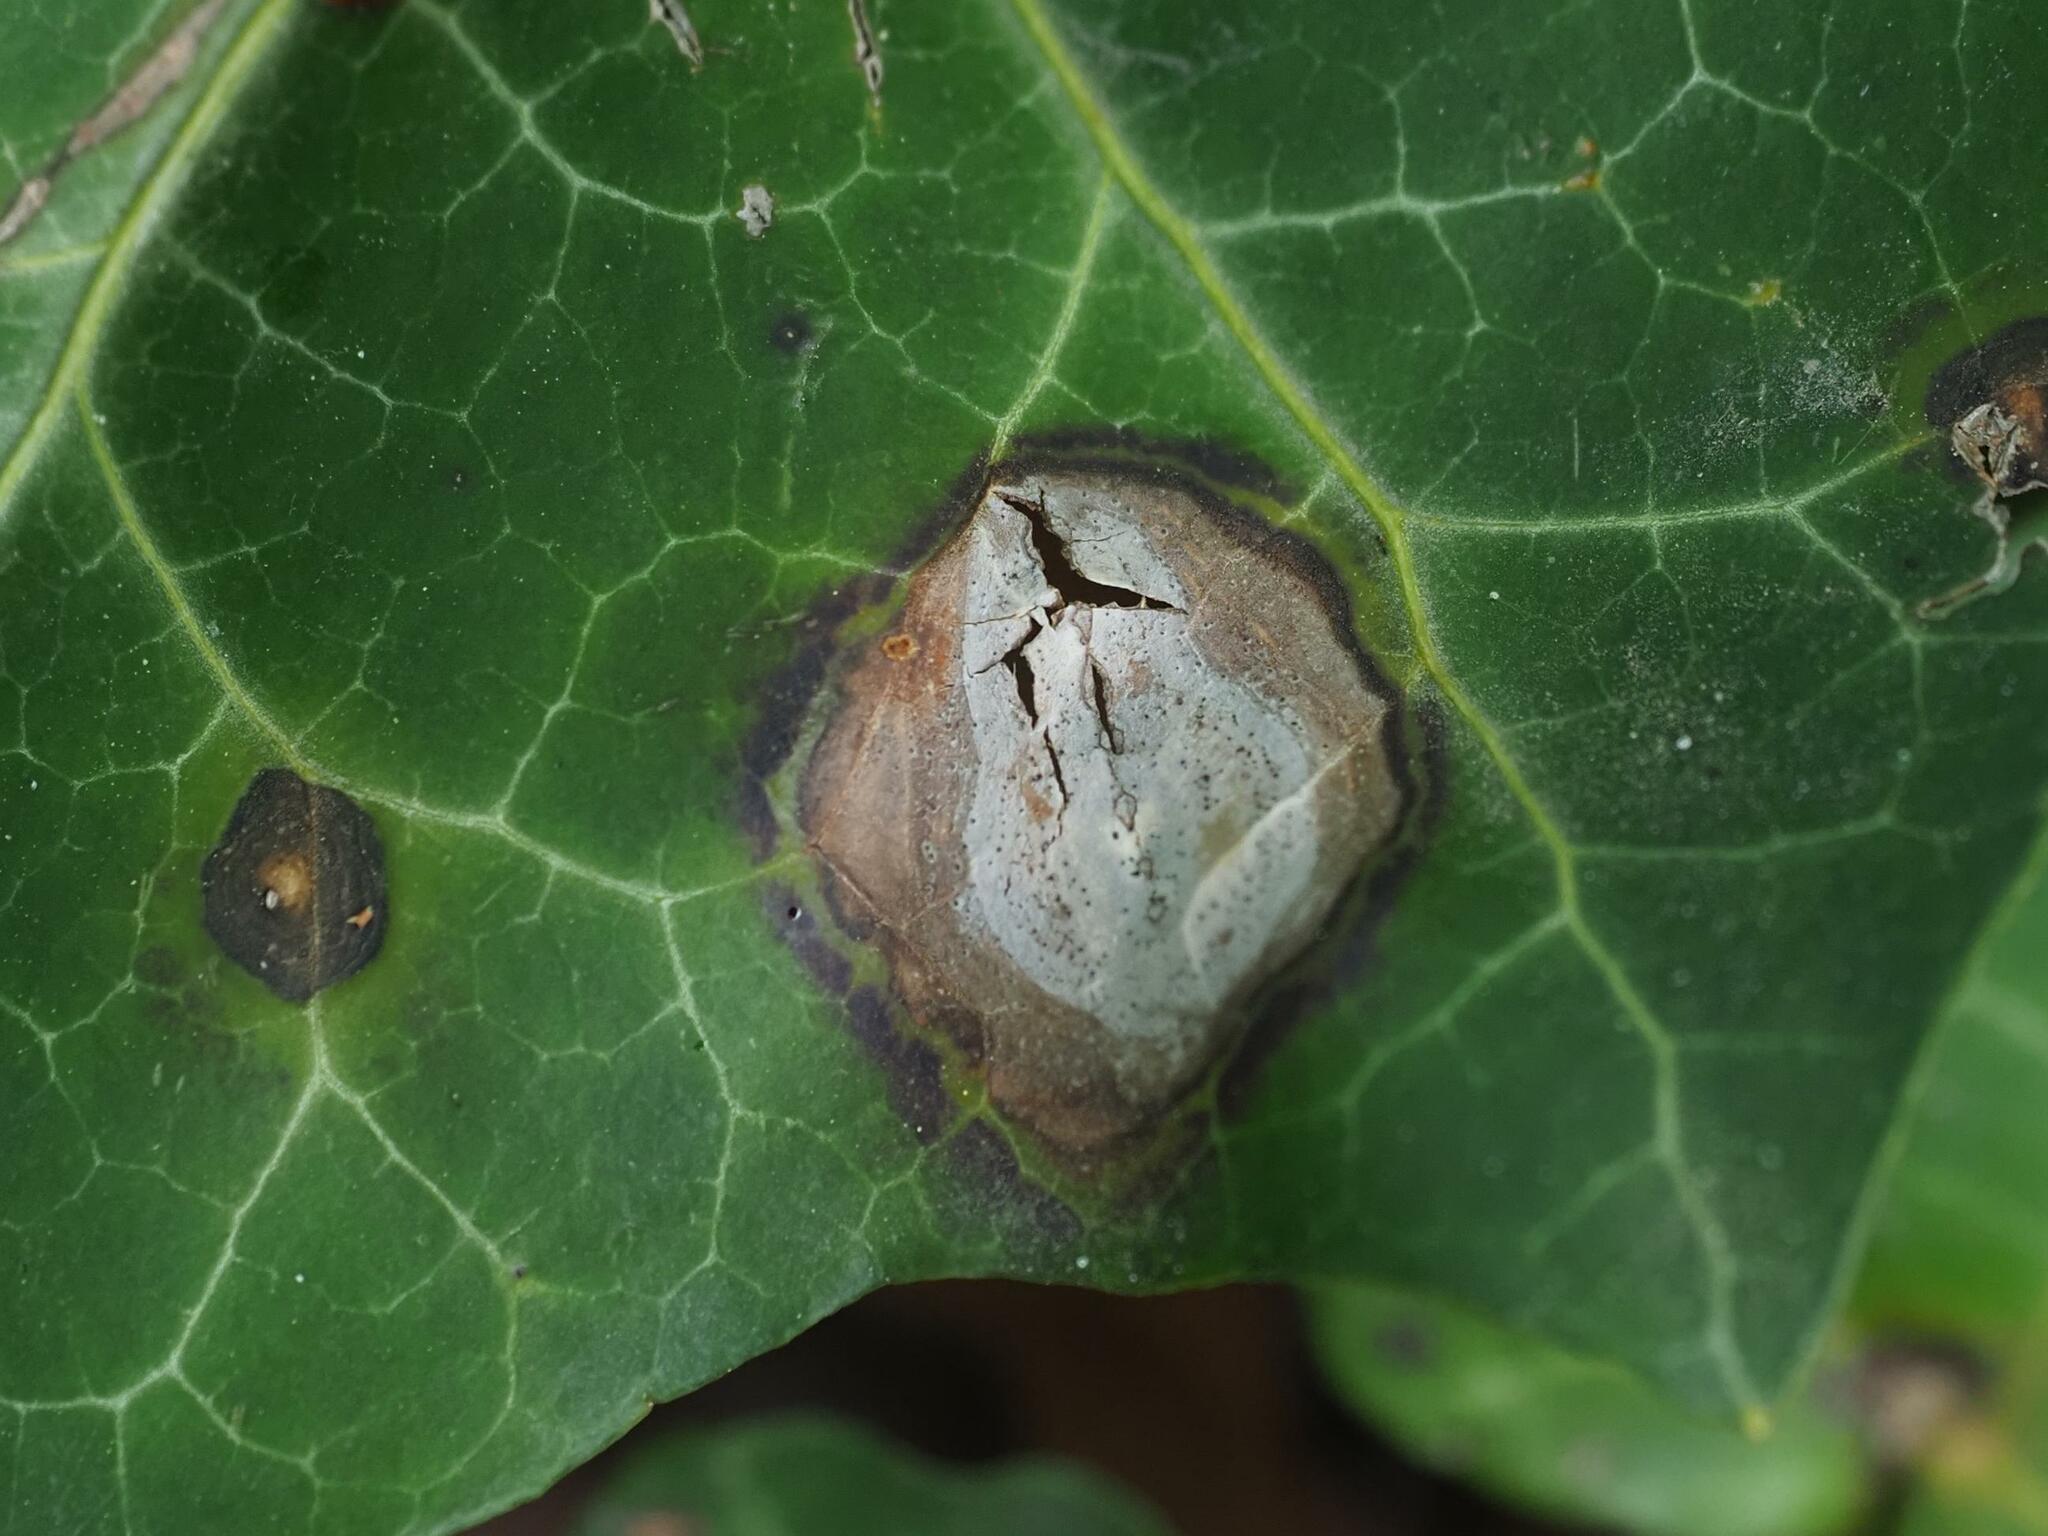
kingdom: Fungi
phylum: Ascomycota
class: Dothideomycetes
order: Pleosporales
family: Didymellaceae
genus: Boeremia
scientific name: Boeremia hedericola
